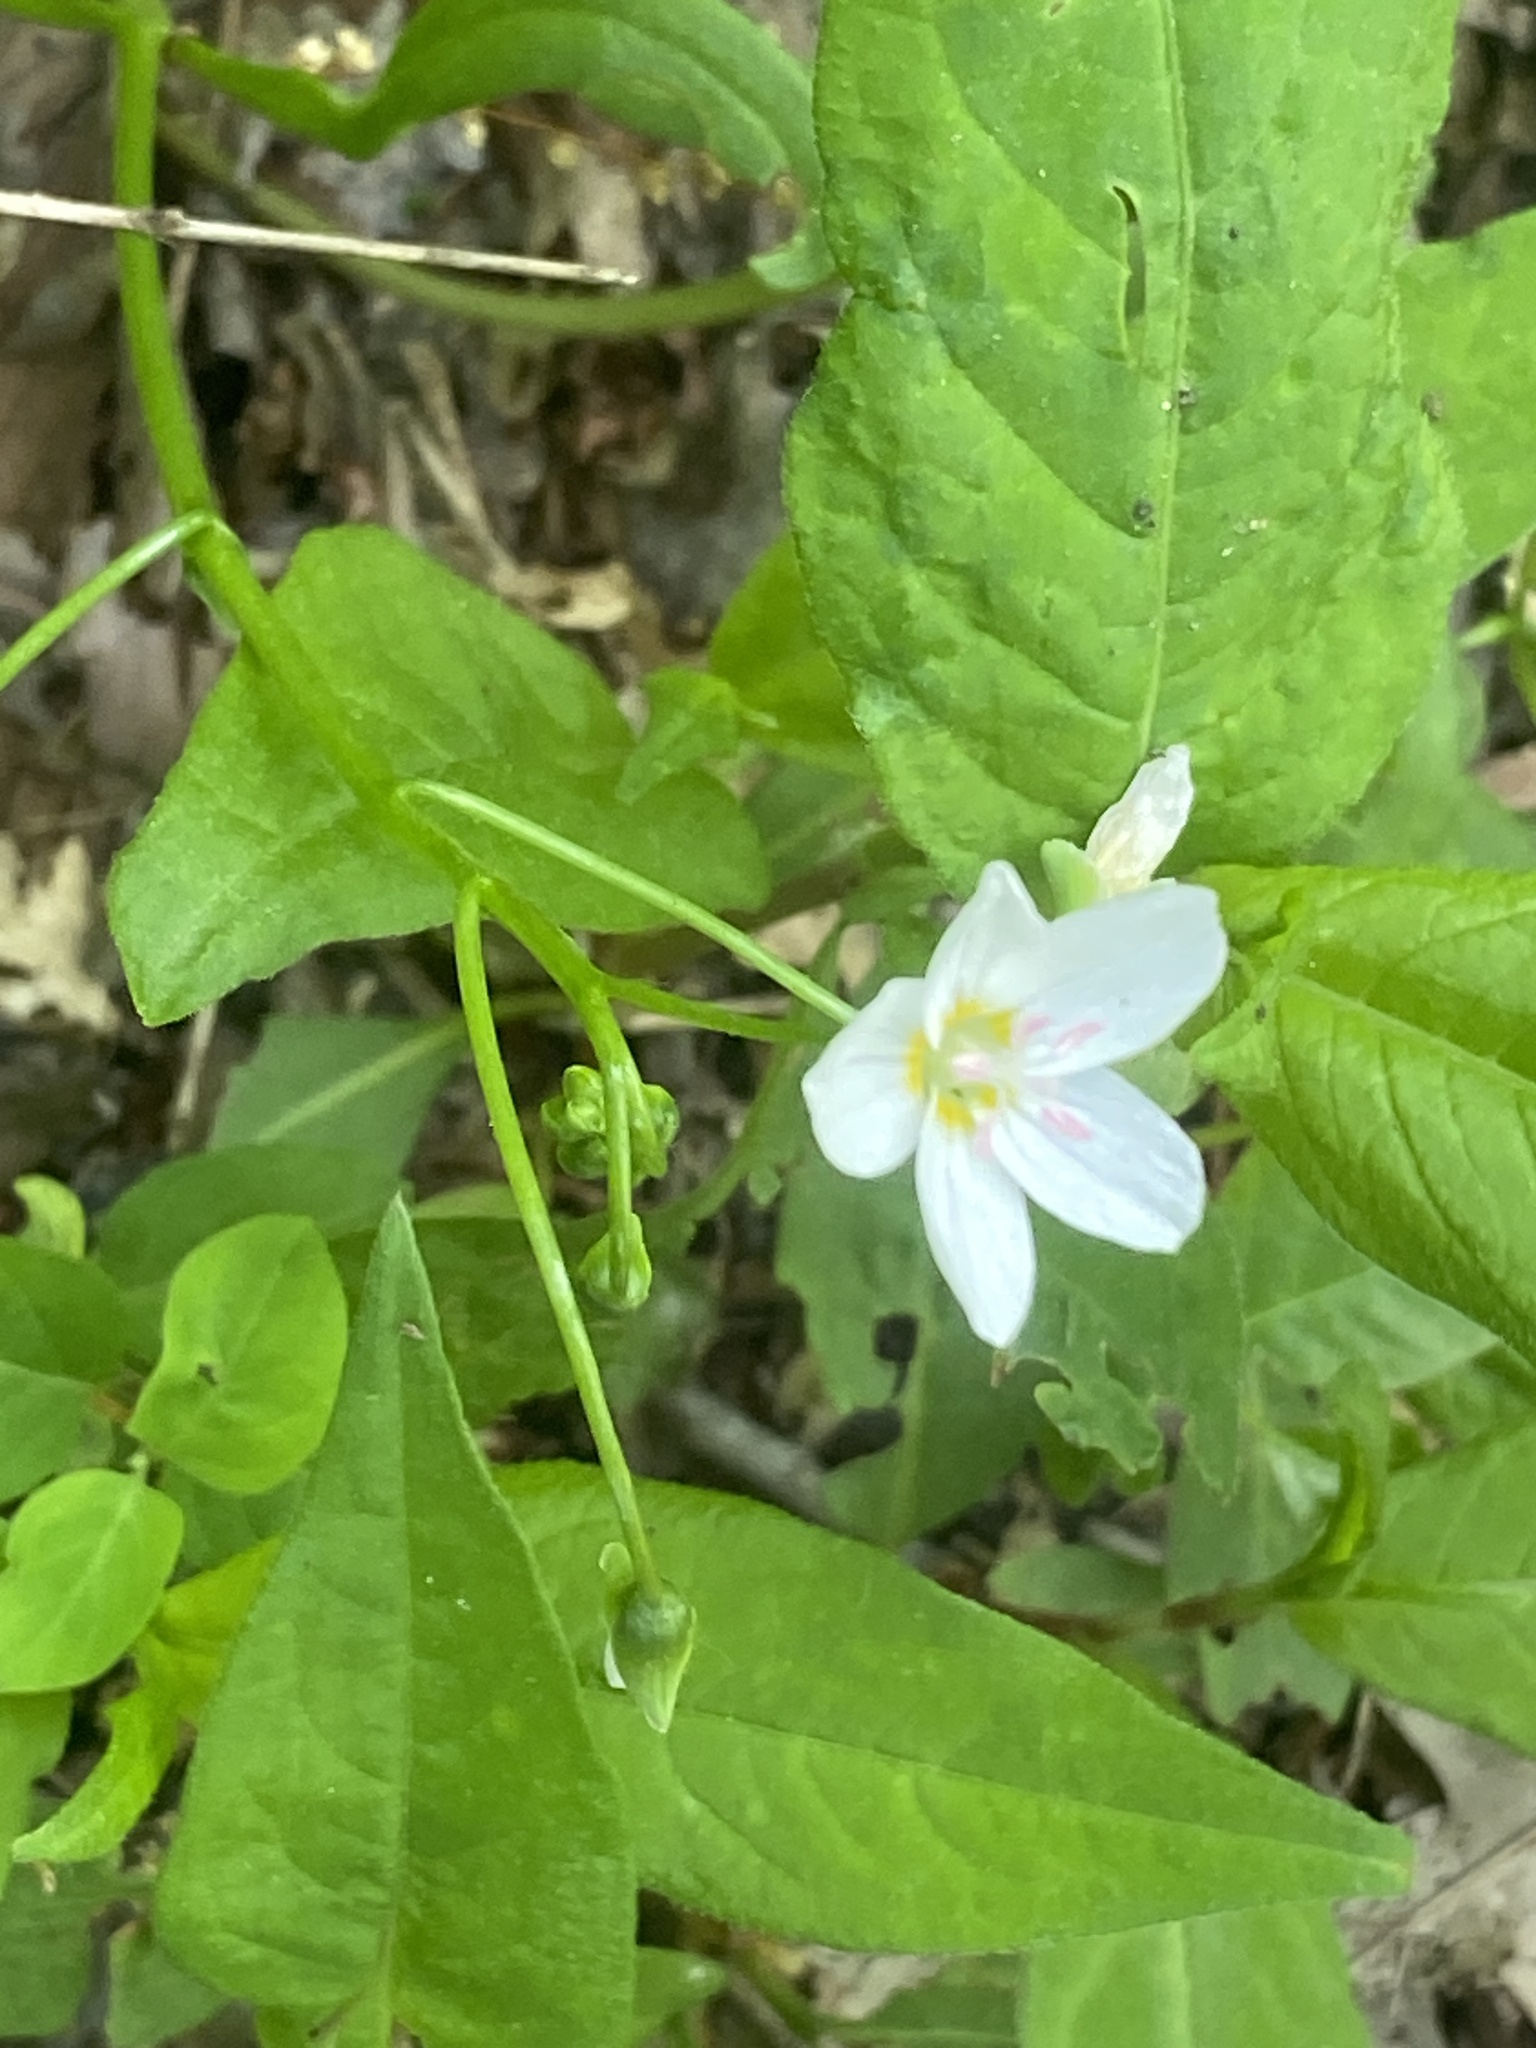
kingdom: Plantae
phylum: Tracheophyta
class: Magnoliopsida
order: Caryophyllales
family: Montiaceae
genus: Claytonia
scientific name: Claytonia virginica
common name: Virginia springbeauty
